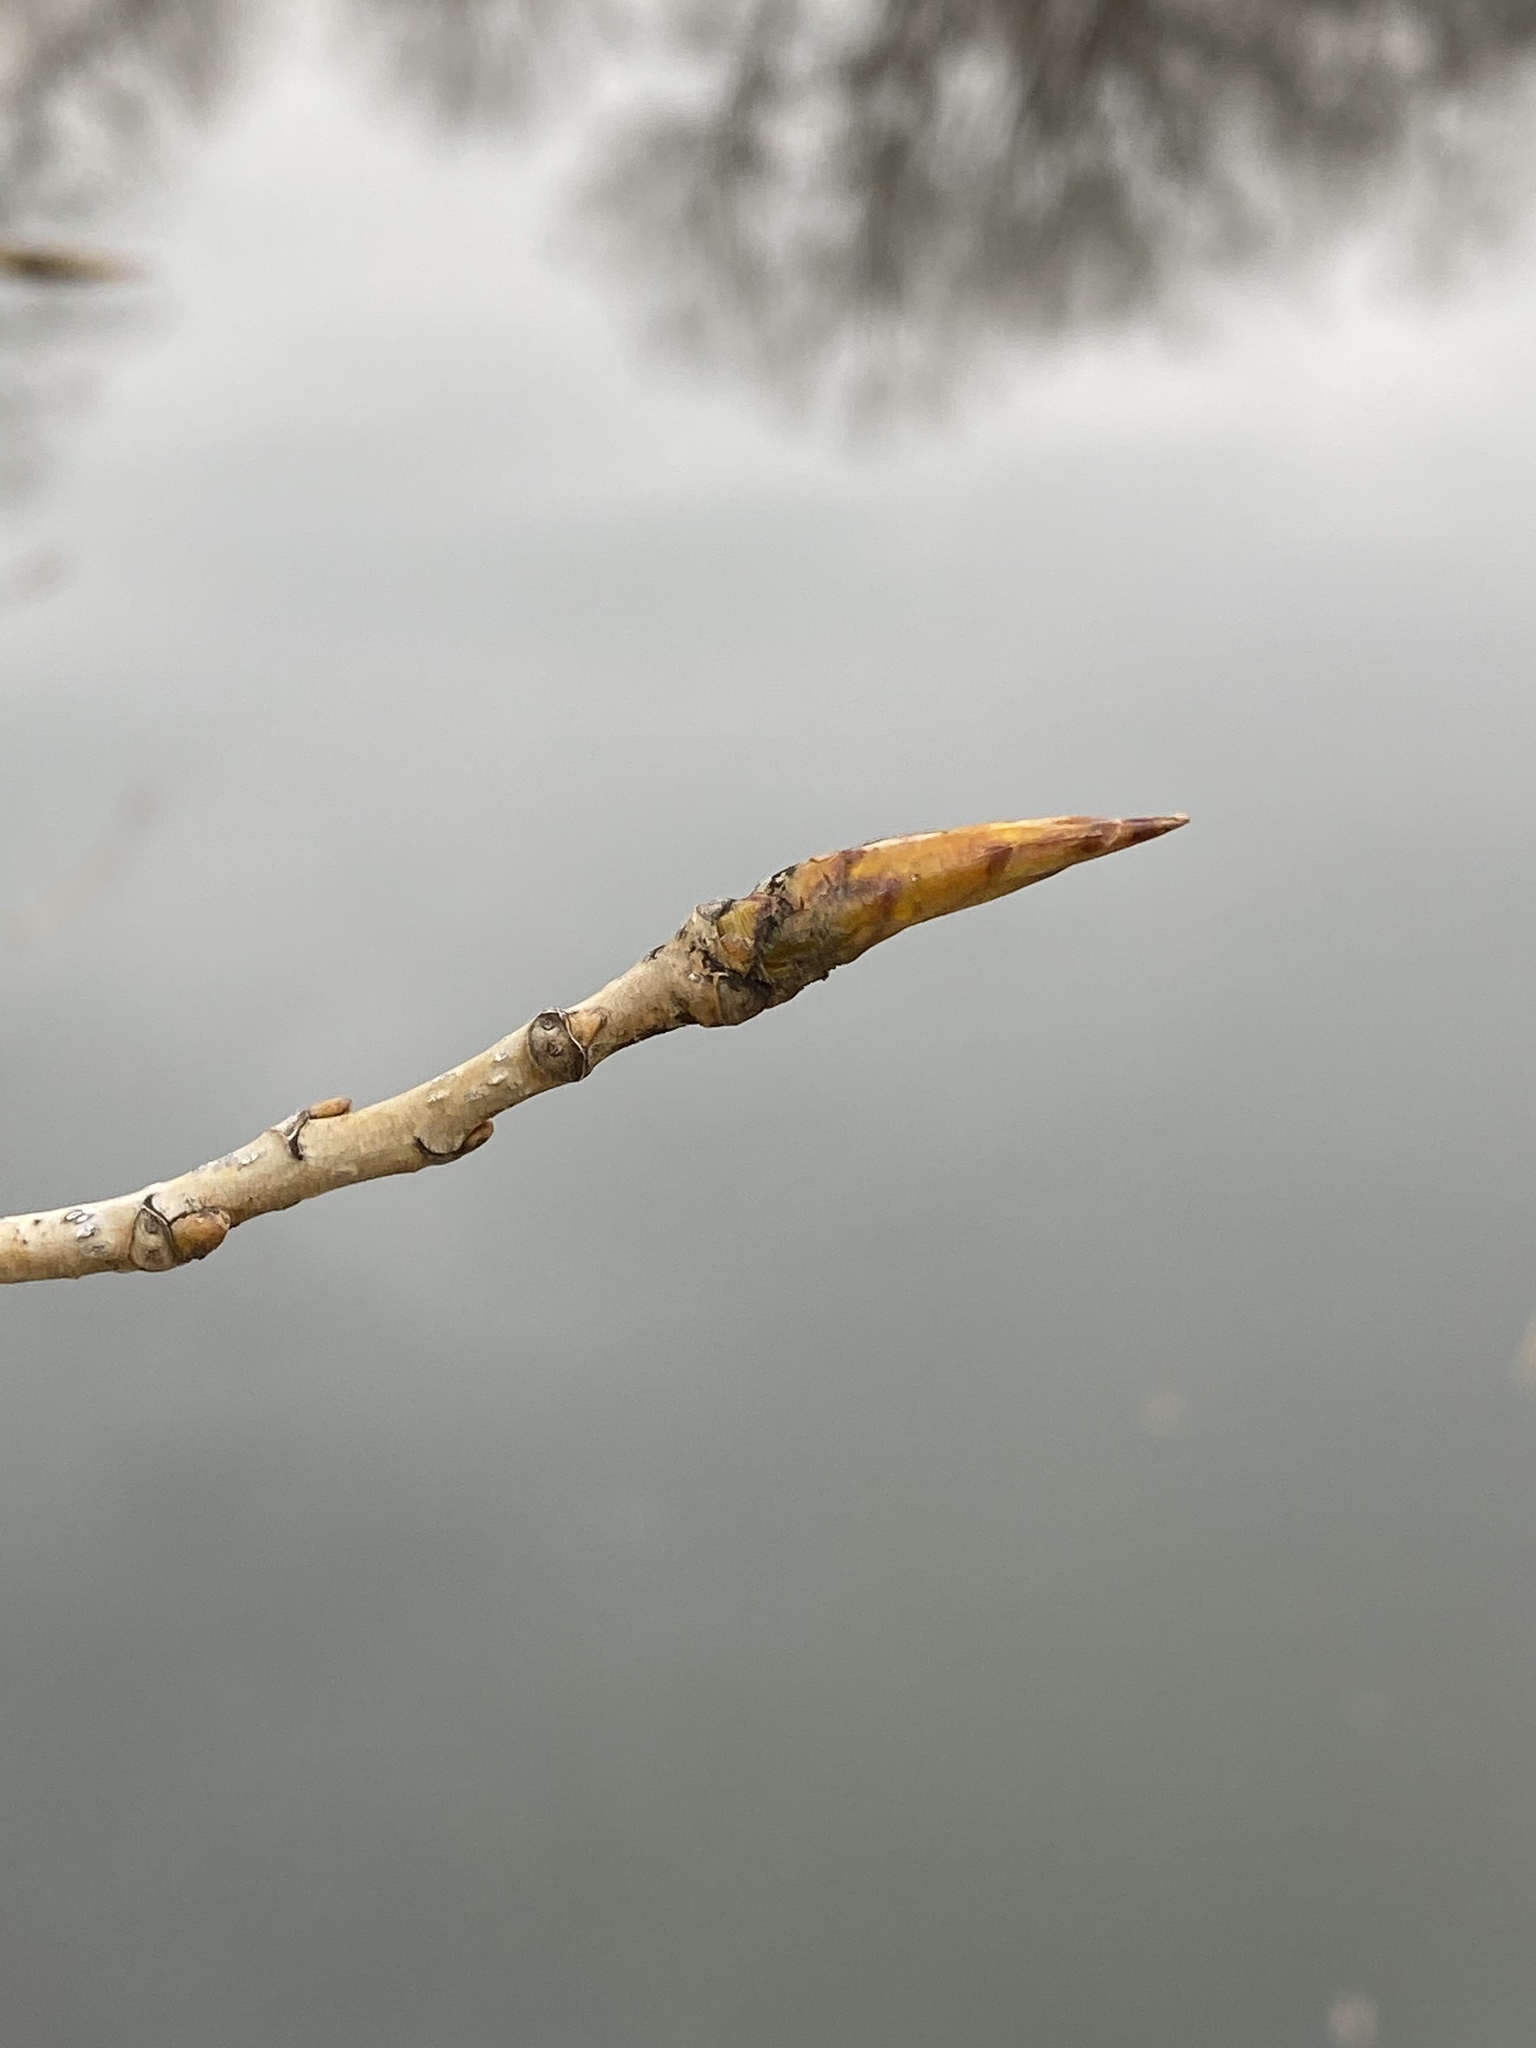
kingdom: Plantae
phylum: Tracheophyta
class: Magnoliopsida
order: Malpighiales
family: Salicaceae
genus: Populus
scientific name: Populus deltoides
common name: Eastern cottonwood
